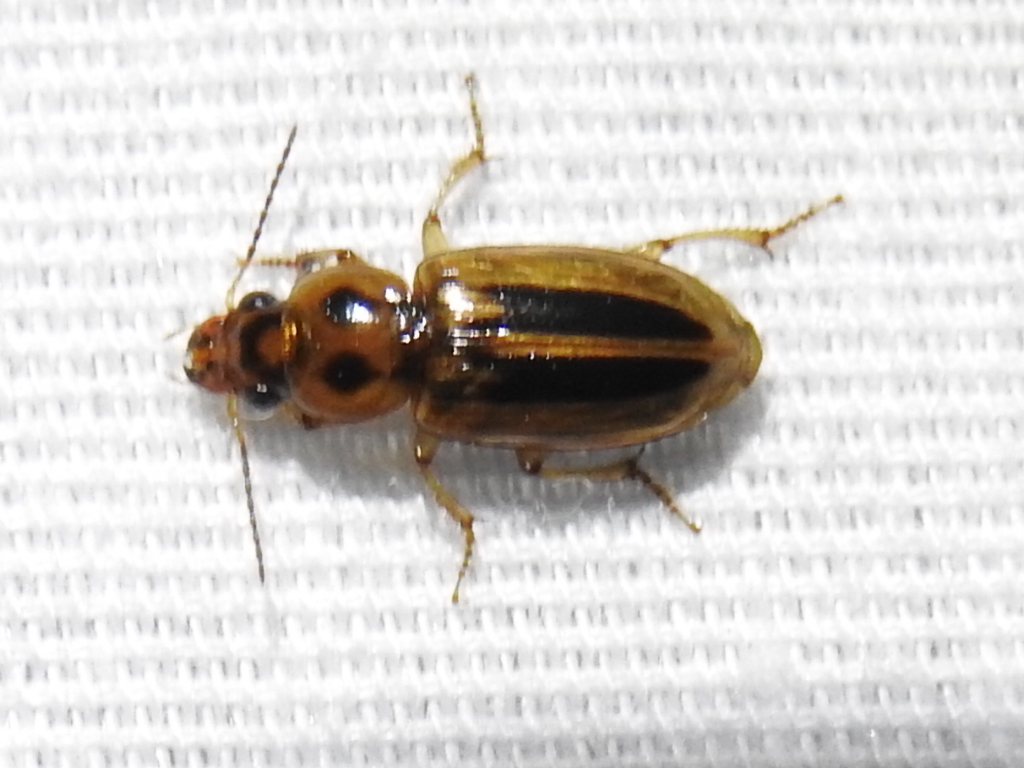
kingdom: Animalia
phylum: Arthropoda
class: Insecta
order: Coleoptera
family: Carabidae
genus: Stenolophus
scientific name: Stenolophus lineola
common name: Lined stenolophus
